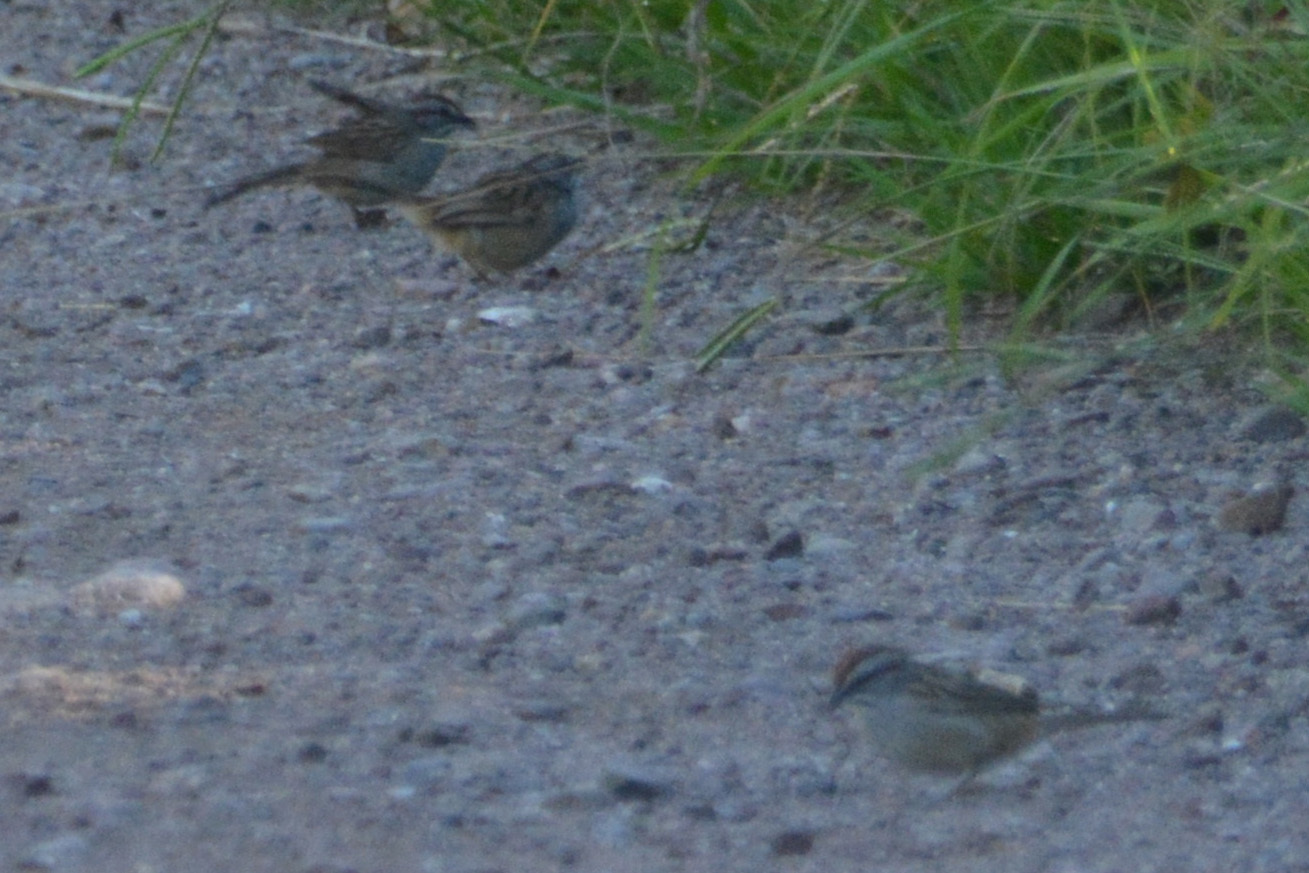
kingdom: Animalia
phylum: Chordata
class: Aves
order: Passeriformes
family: Passerellidae
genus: Rhynchospiza
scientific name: Rhynchospiza strigiceps
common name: Stripe-capped sparrow
